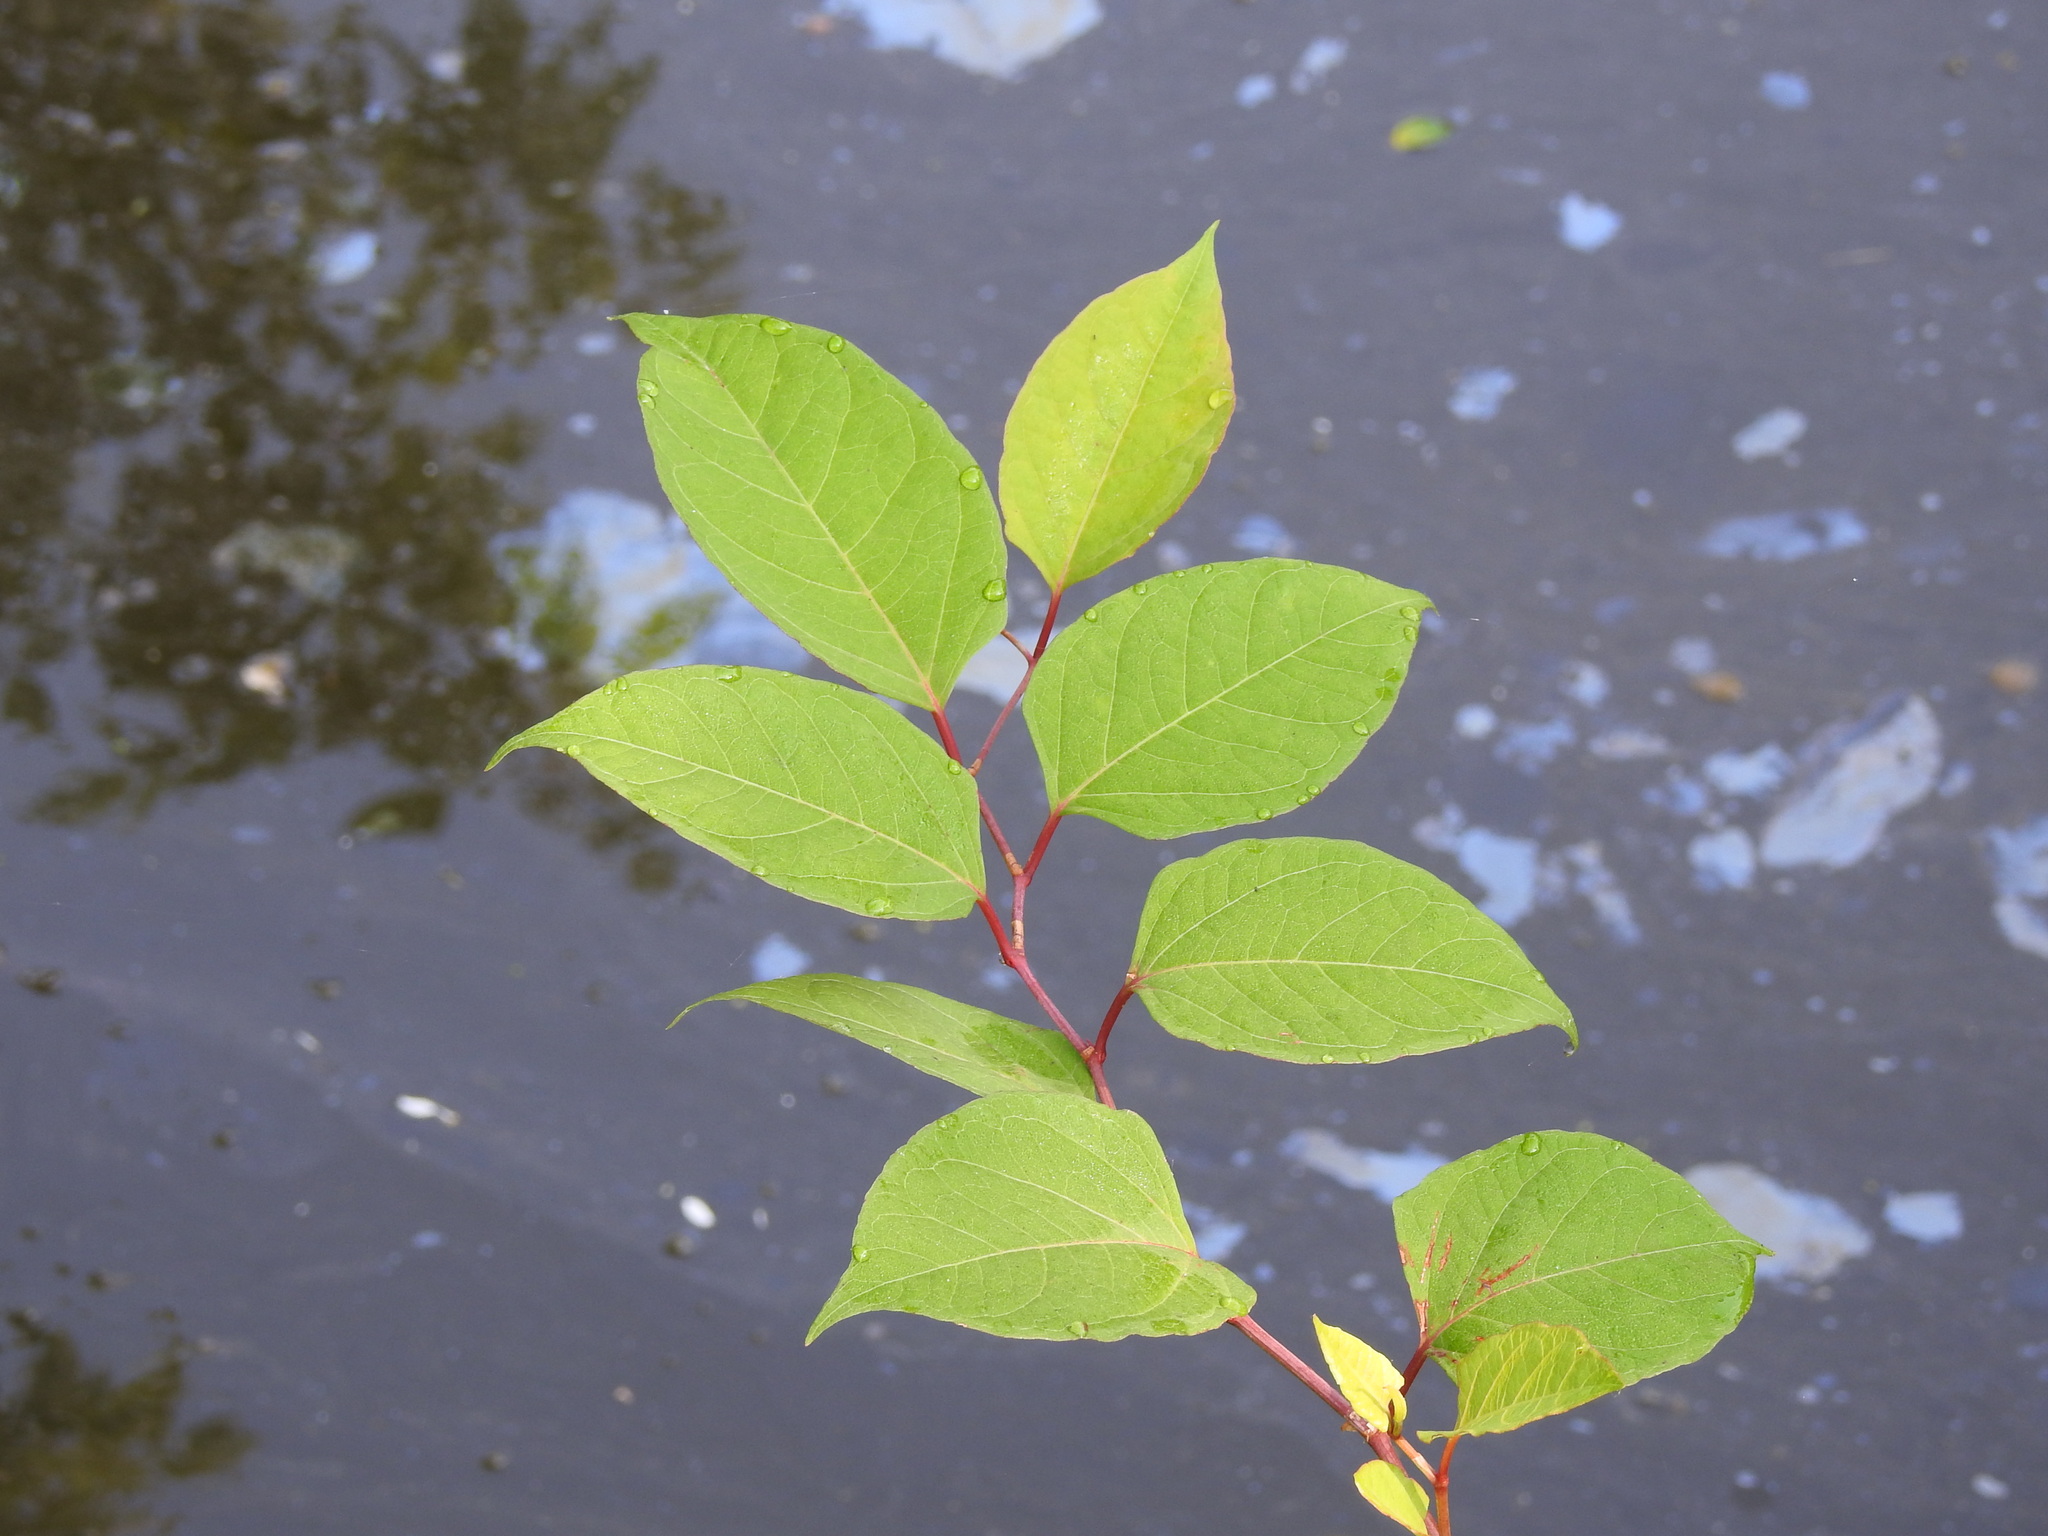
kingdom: Plantae
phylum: Tracheophyta
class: Magnoliopsida
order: Caryophyllales
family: Polygonaceae
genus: Reynoutria
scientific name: Reynoutria japonica
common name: Japanese knotweed
